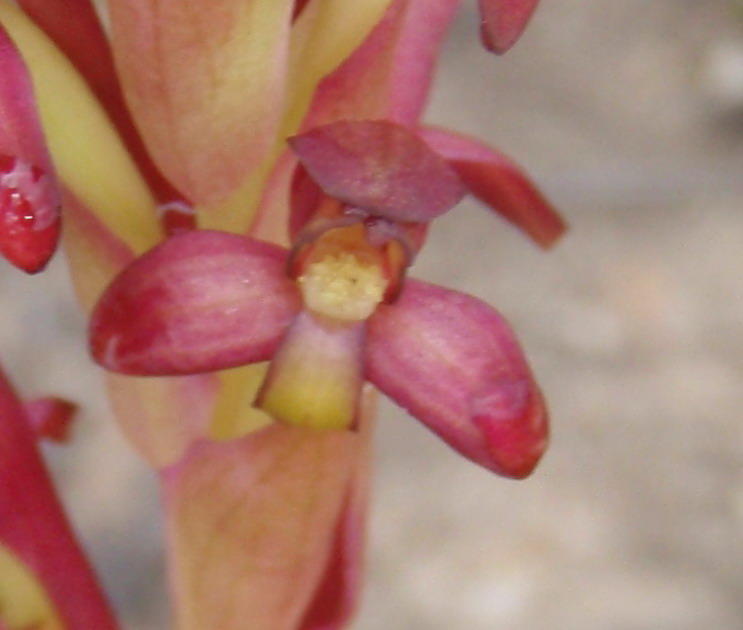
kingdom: Plantae
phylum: Tracheophyta
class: Liliopsida
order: Asparagales
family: Orchidaceae
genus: Disa
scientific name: Disa bolusiana
